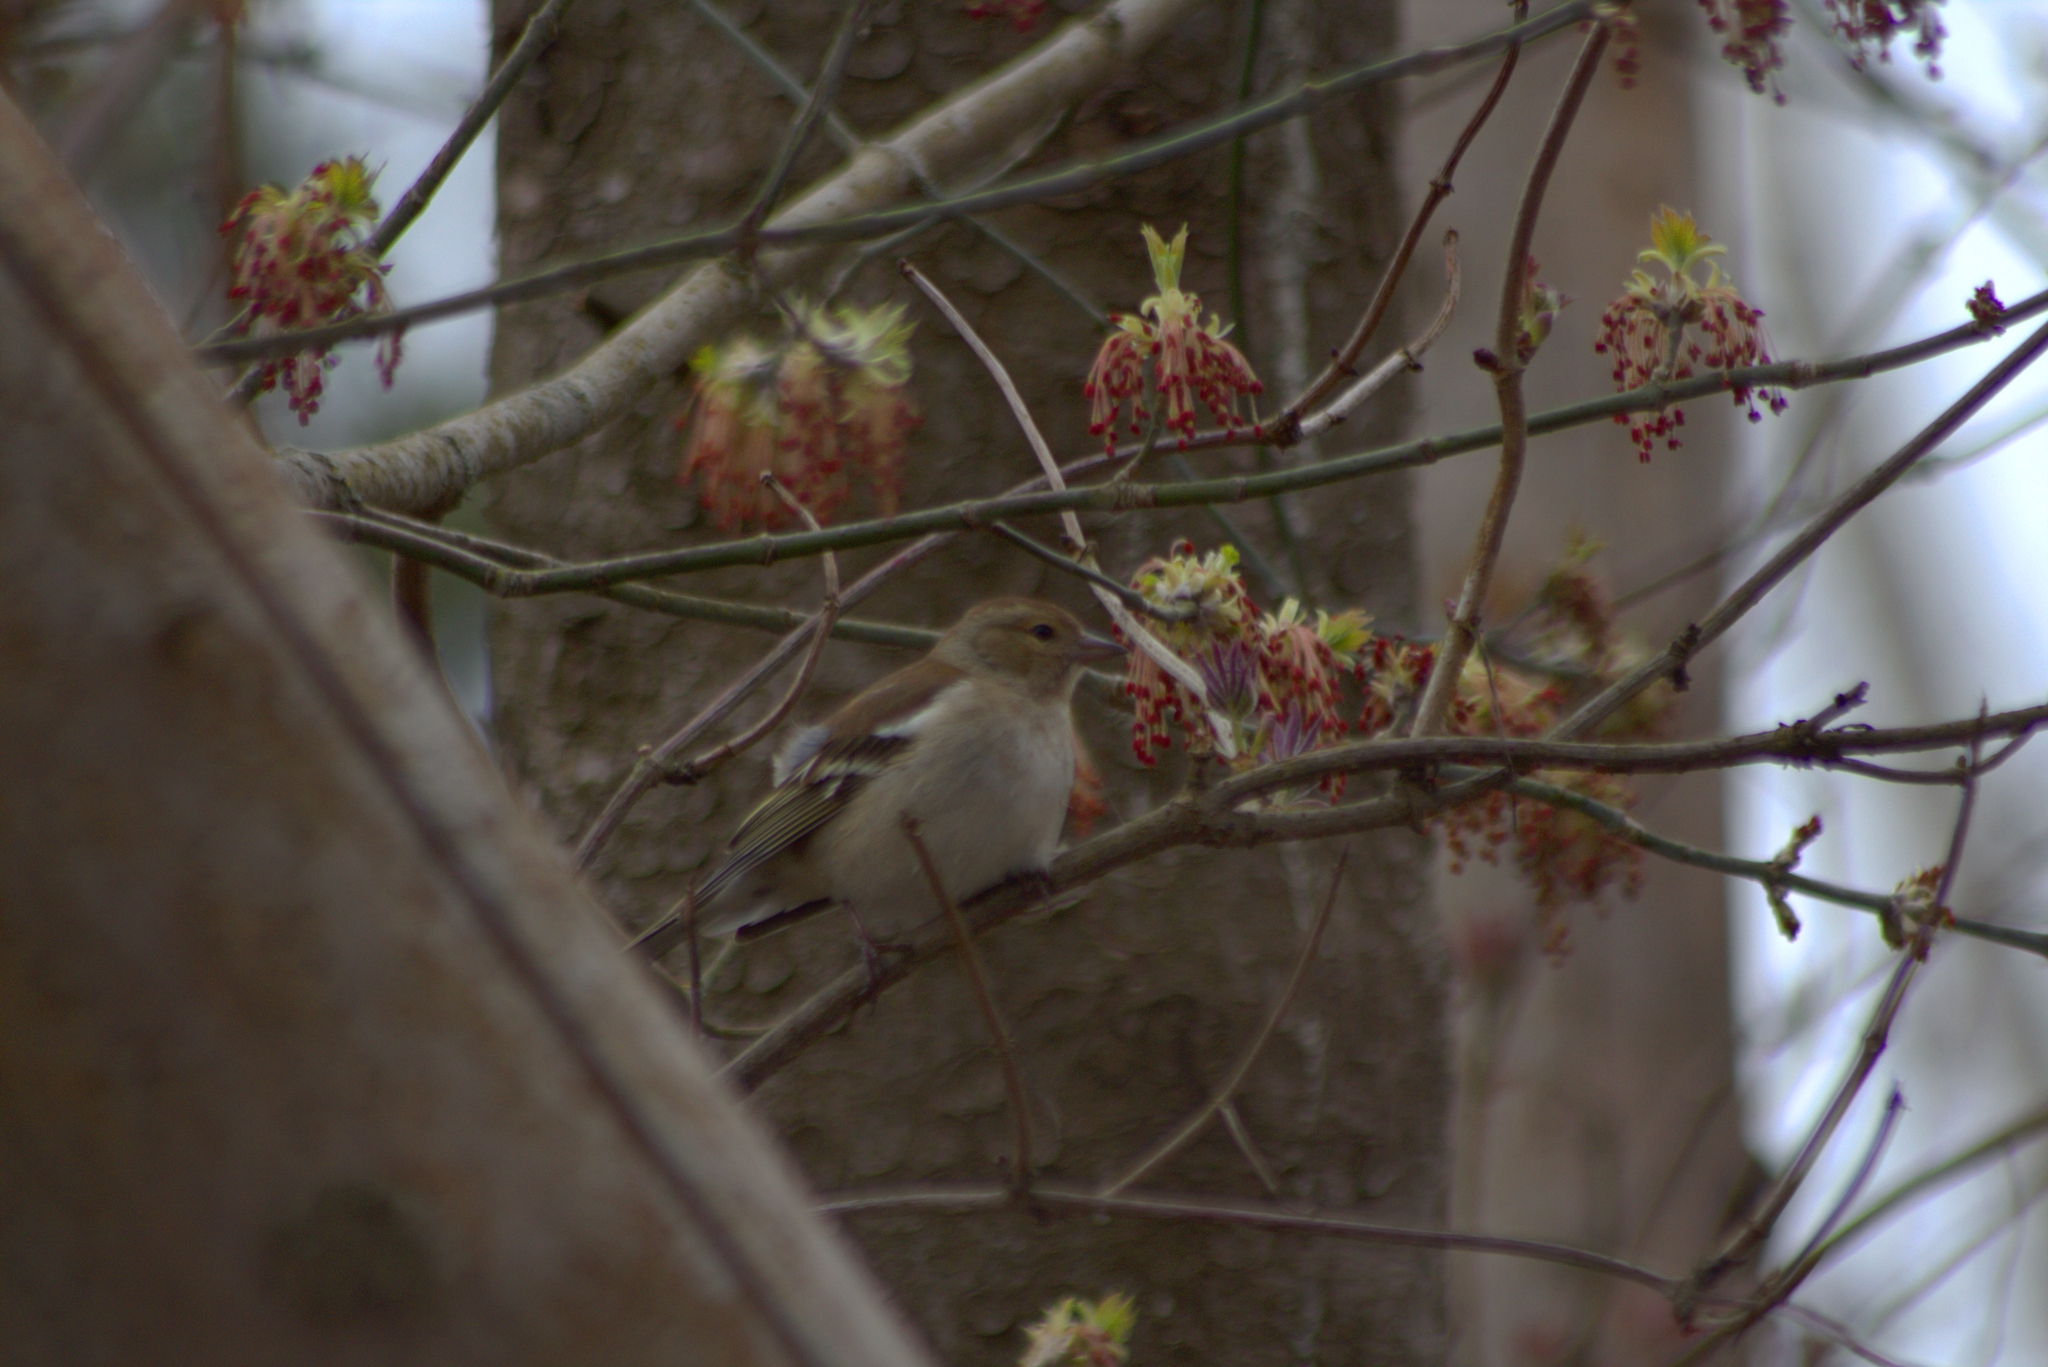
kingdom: Animalia
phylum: Chordata
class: Aves
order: Passeriformes
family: Fringillidae
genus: Fringilla
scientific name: Fringilla coelebs
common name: Common chaffinch
